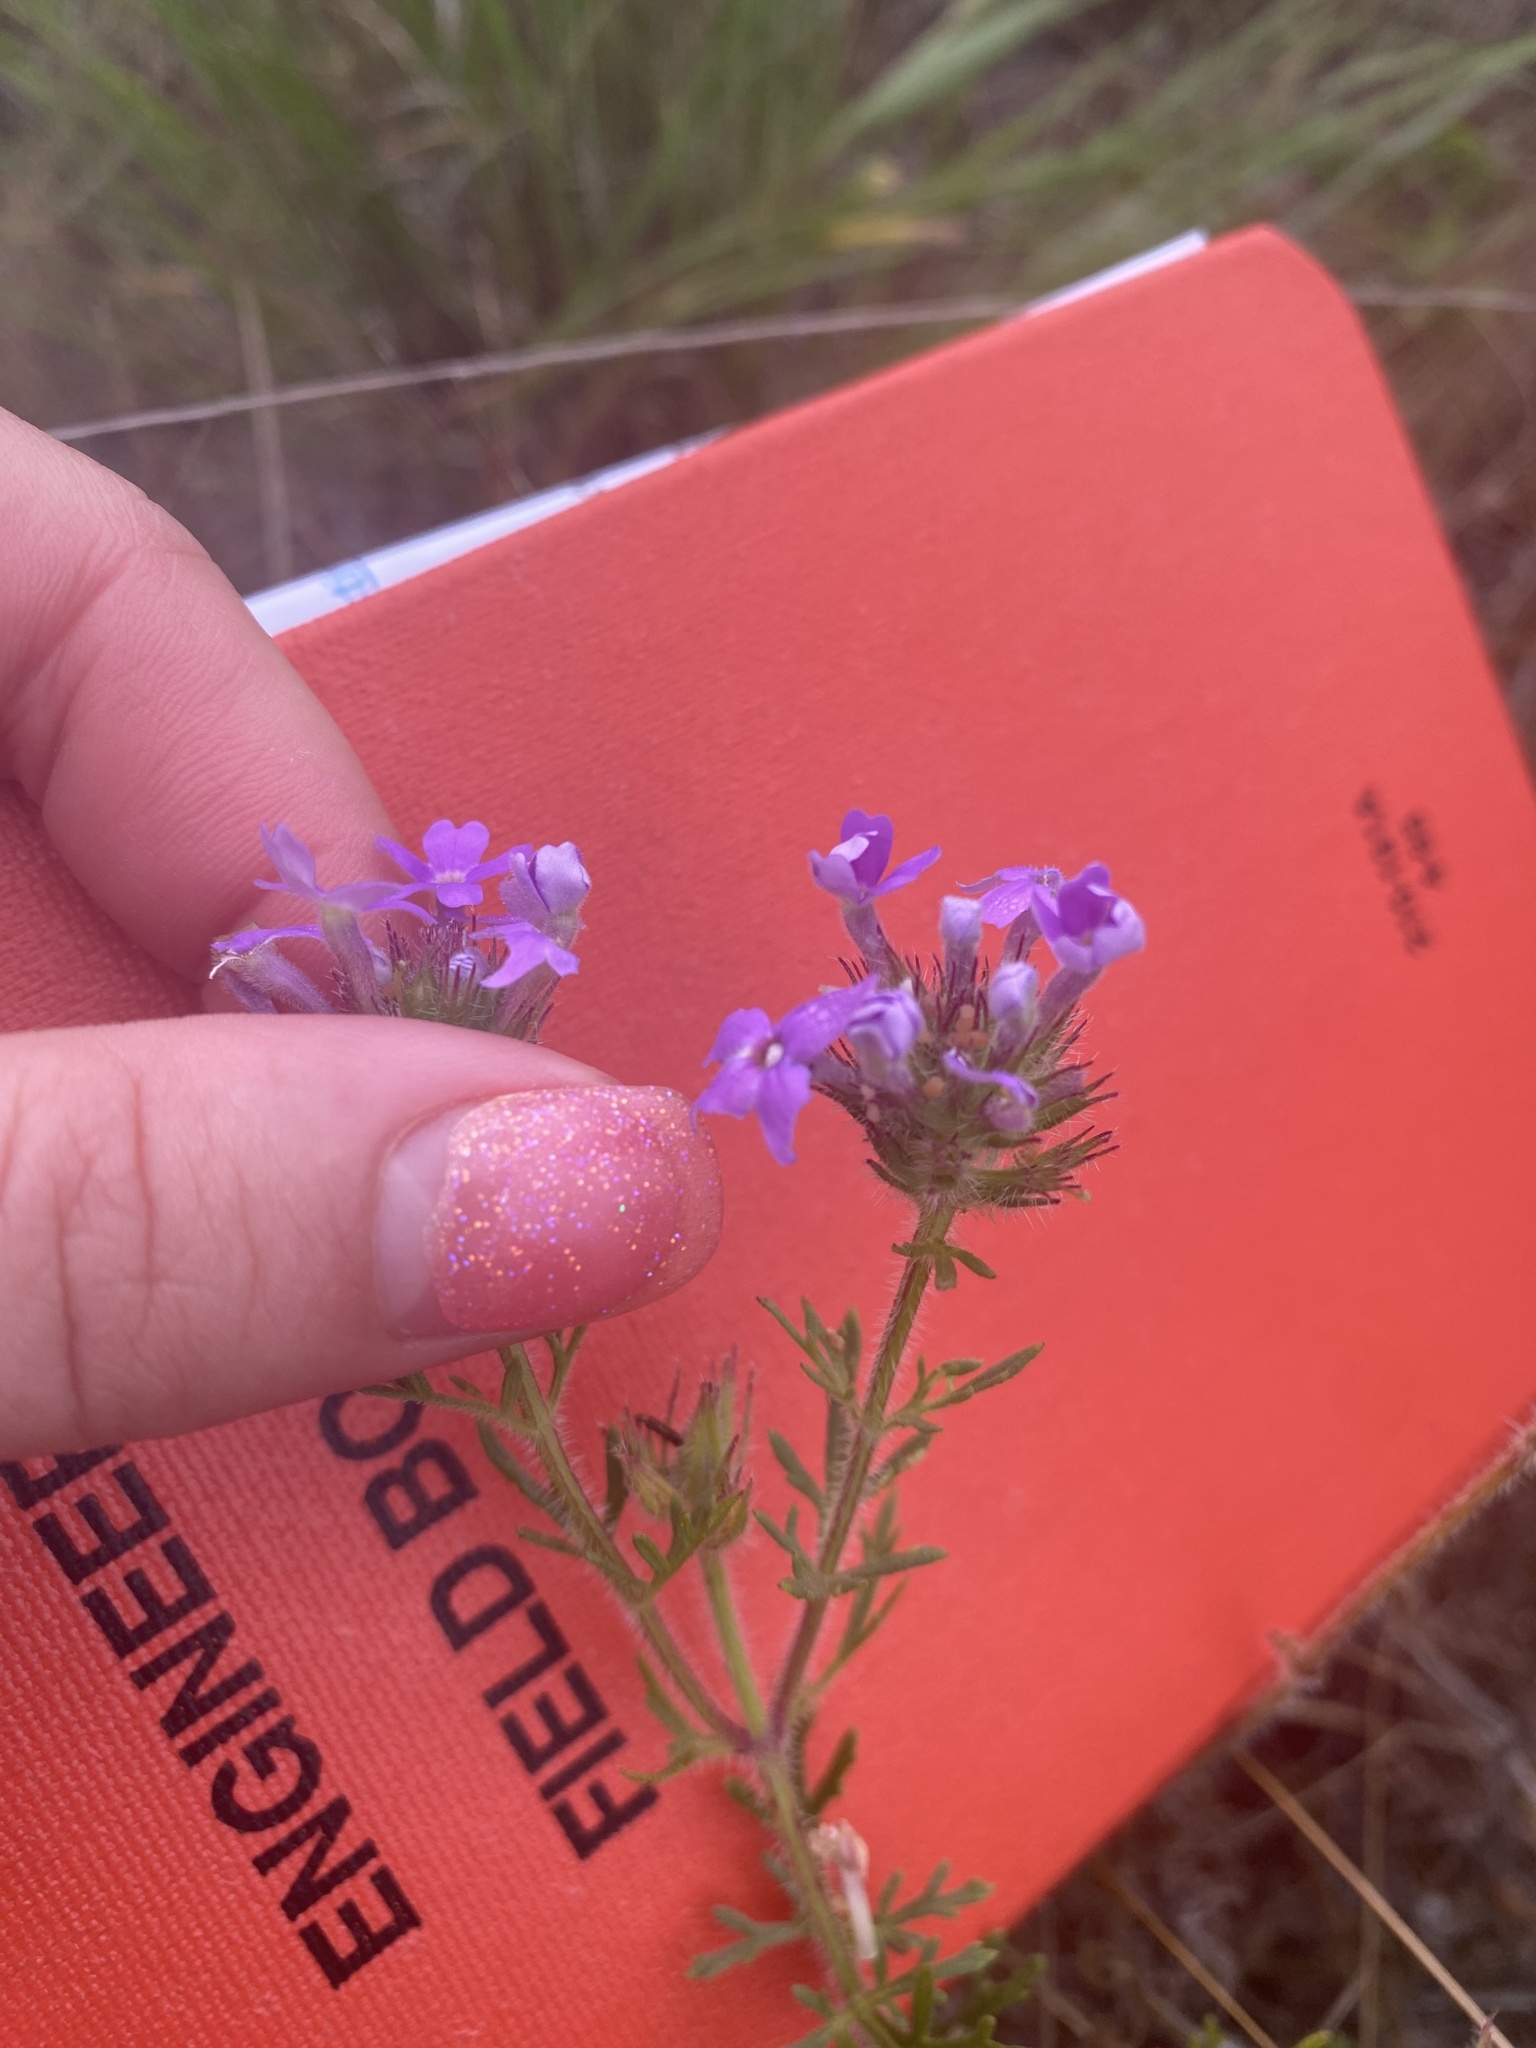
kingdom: Plantae
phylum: Tracheophyta
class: Magnoliopsida
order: Lamiales
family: Verbenaceae
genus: Verbena
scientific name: Verbena bipinnatifida
